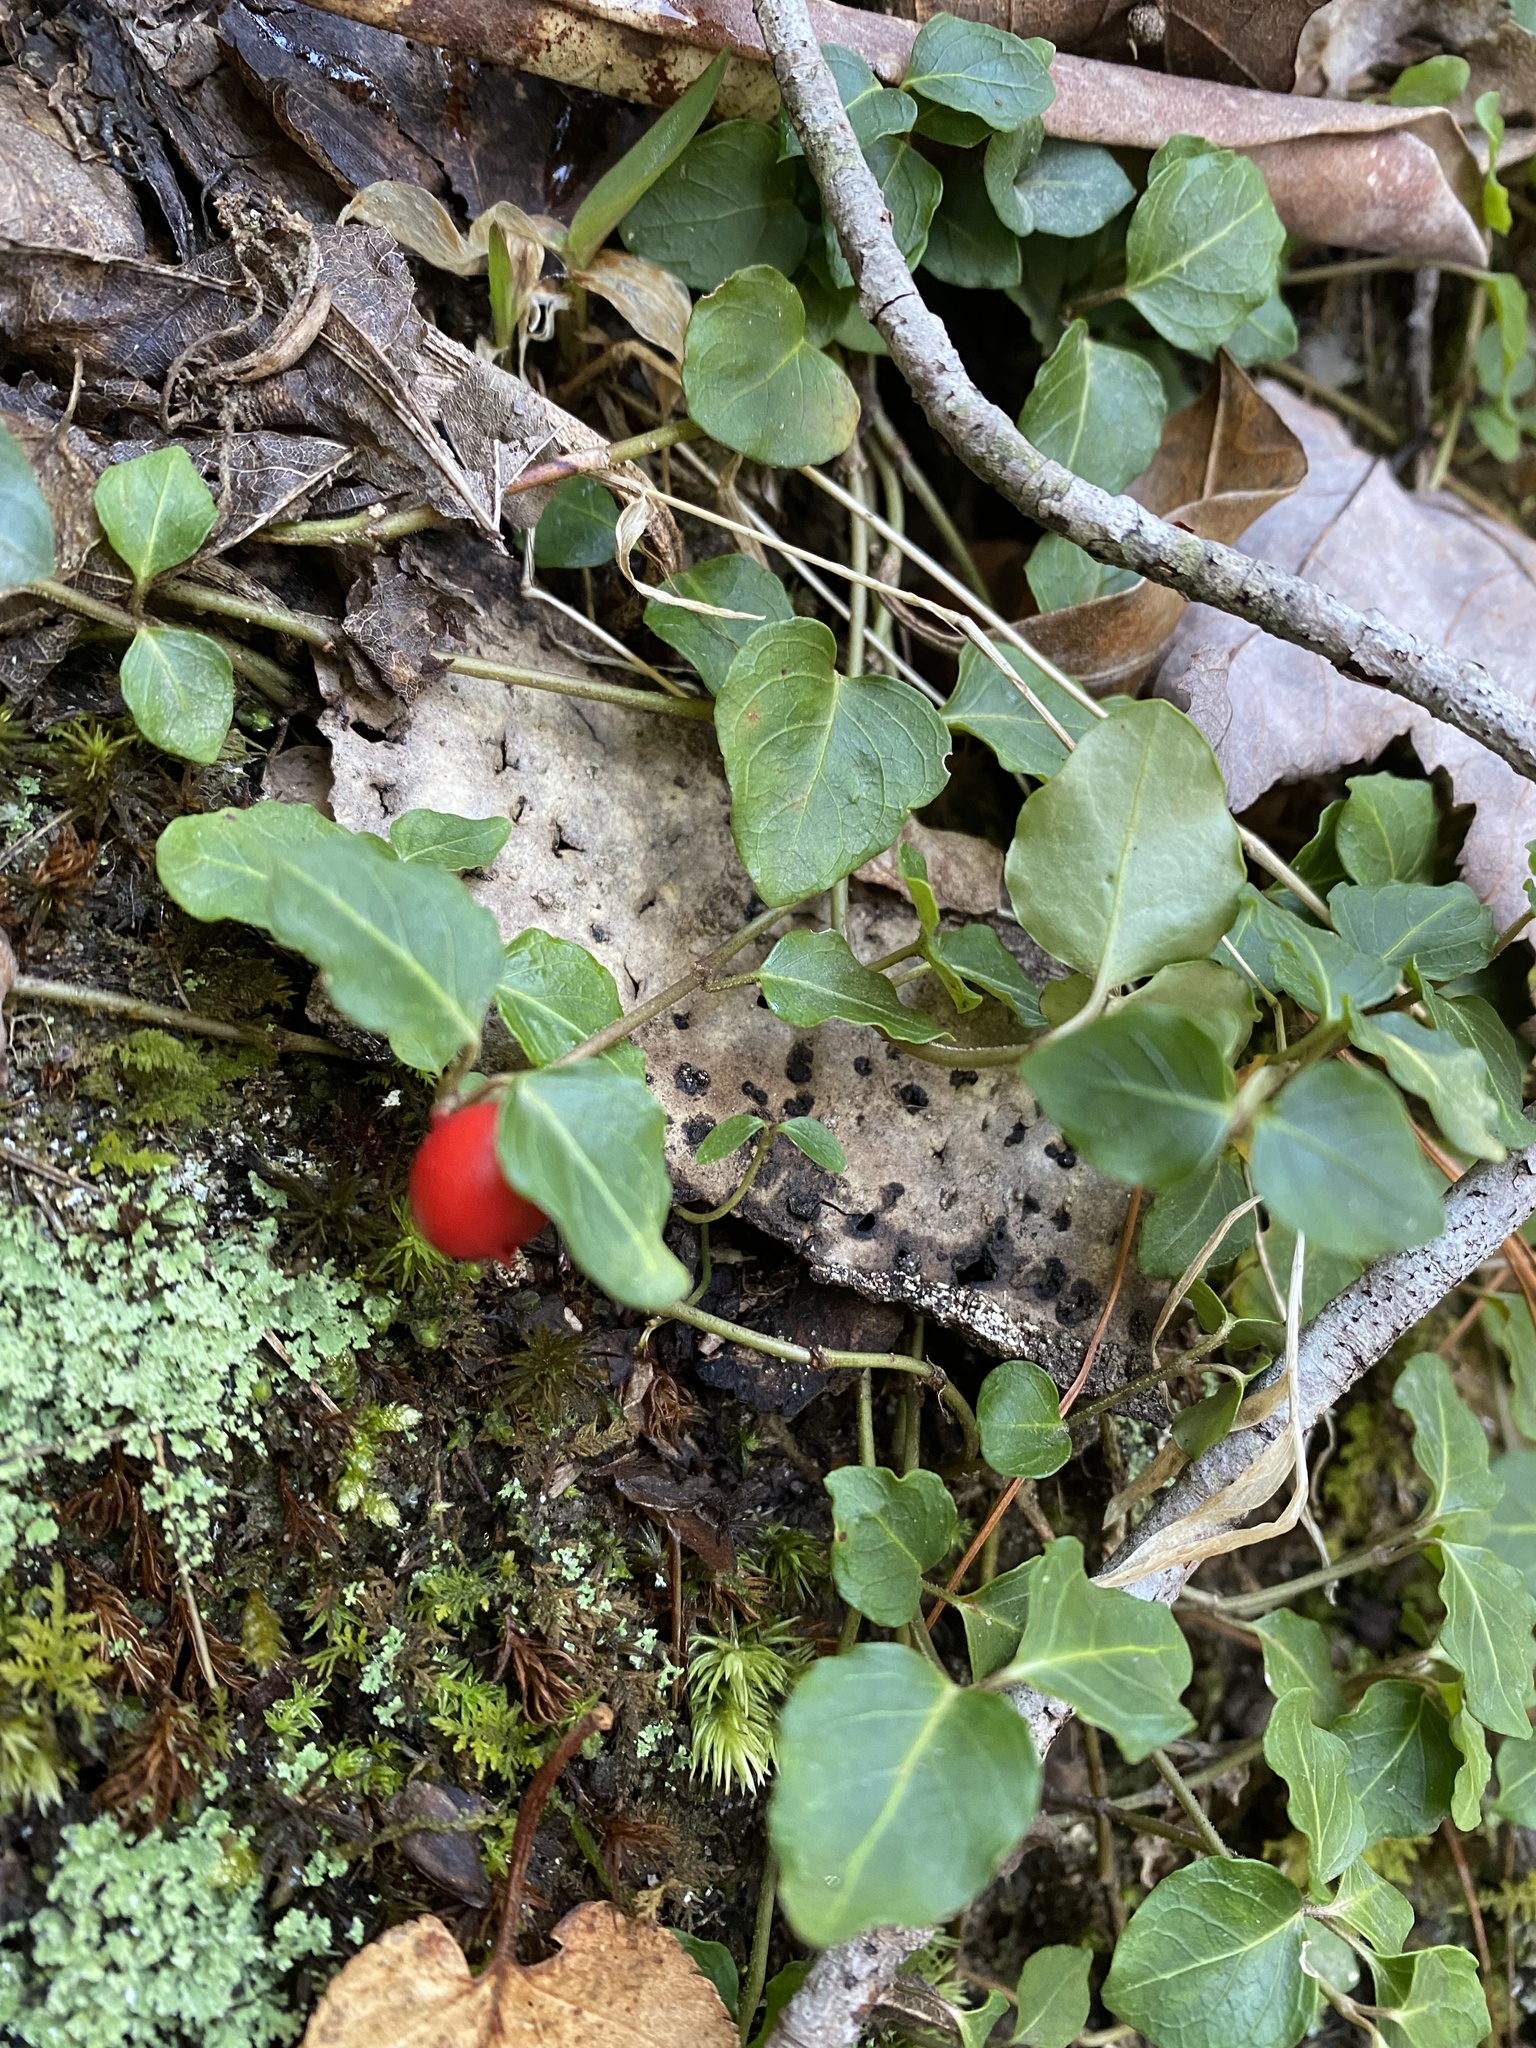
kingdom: Plantae
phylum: Tracheophyta
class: Magnoliopsida
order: Gentianales
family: Rubiaceae
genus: Mitchella
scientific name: Mitchella repens
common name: Partridge-berry
